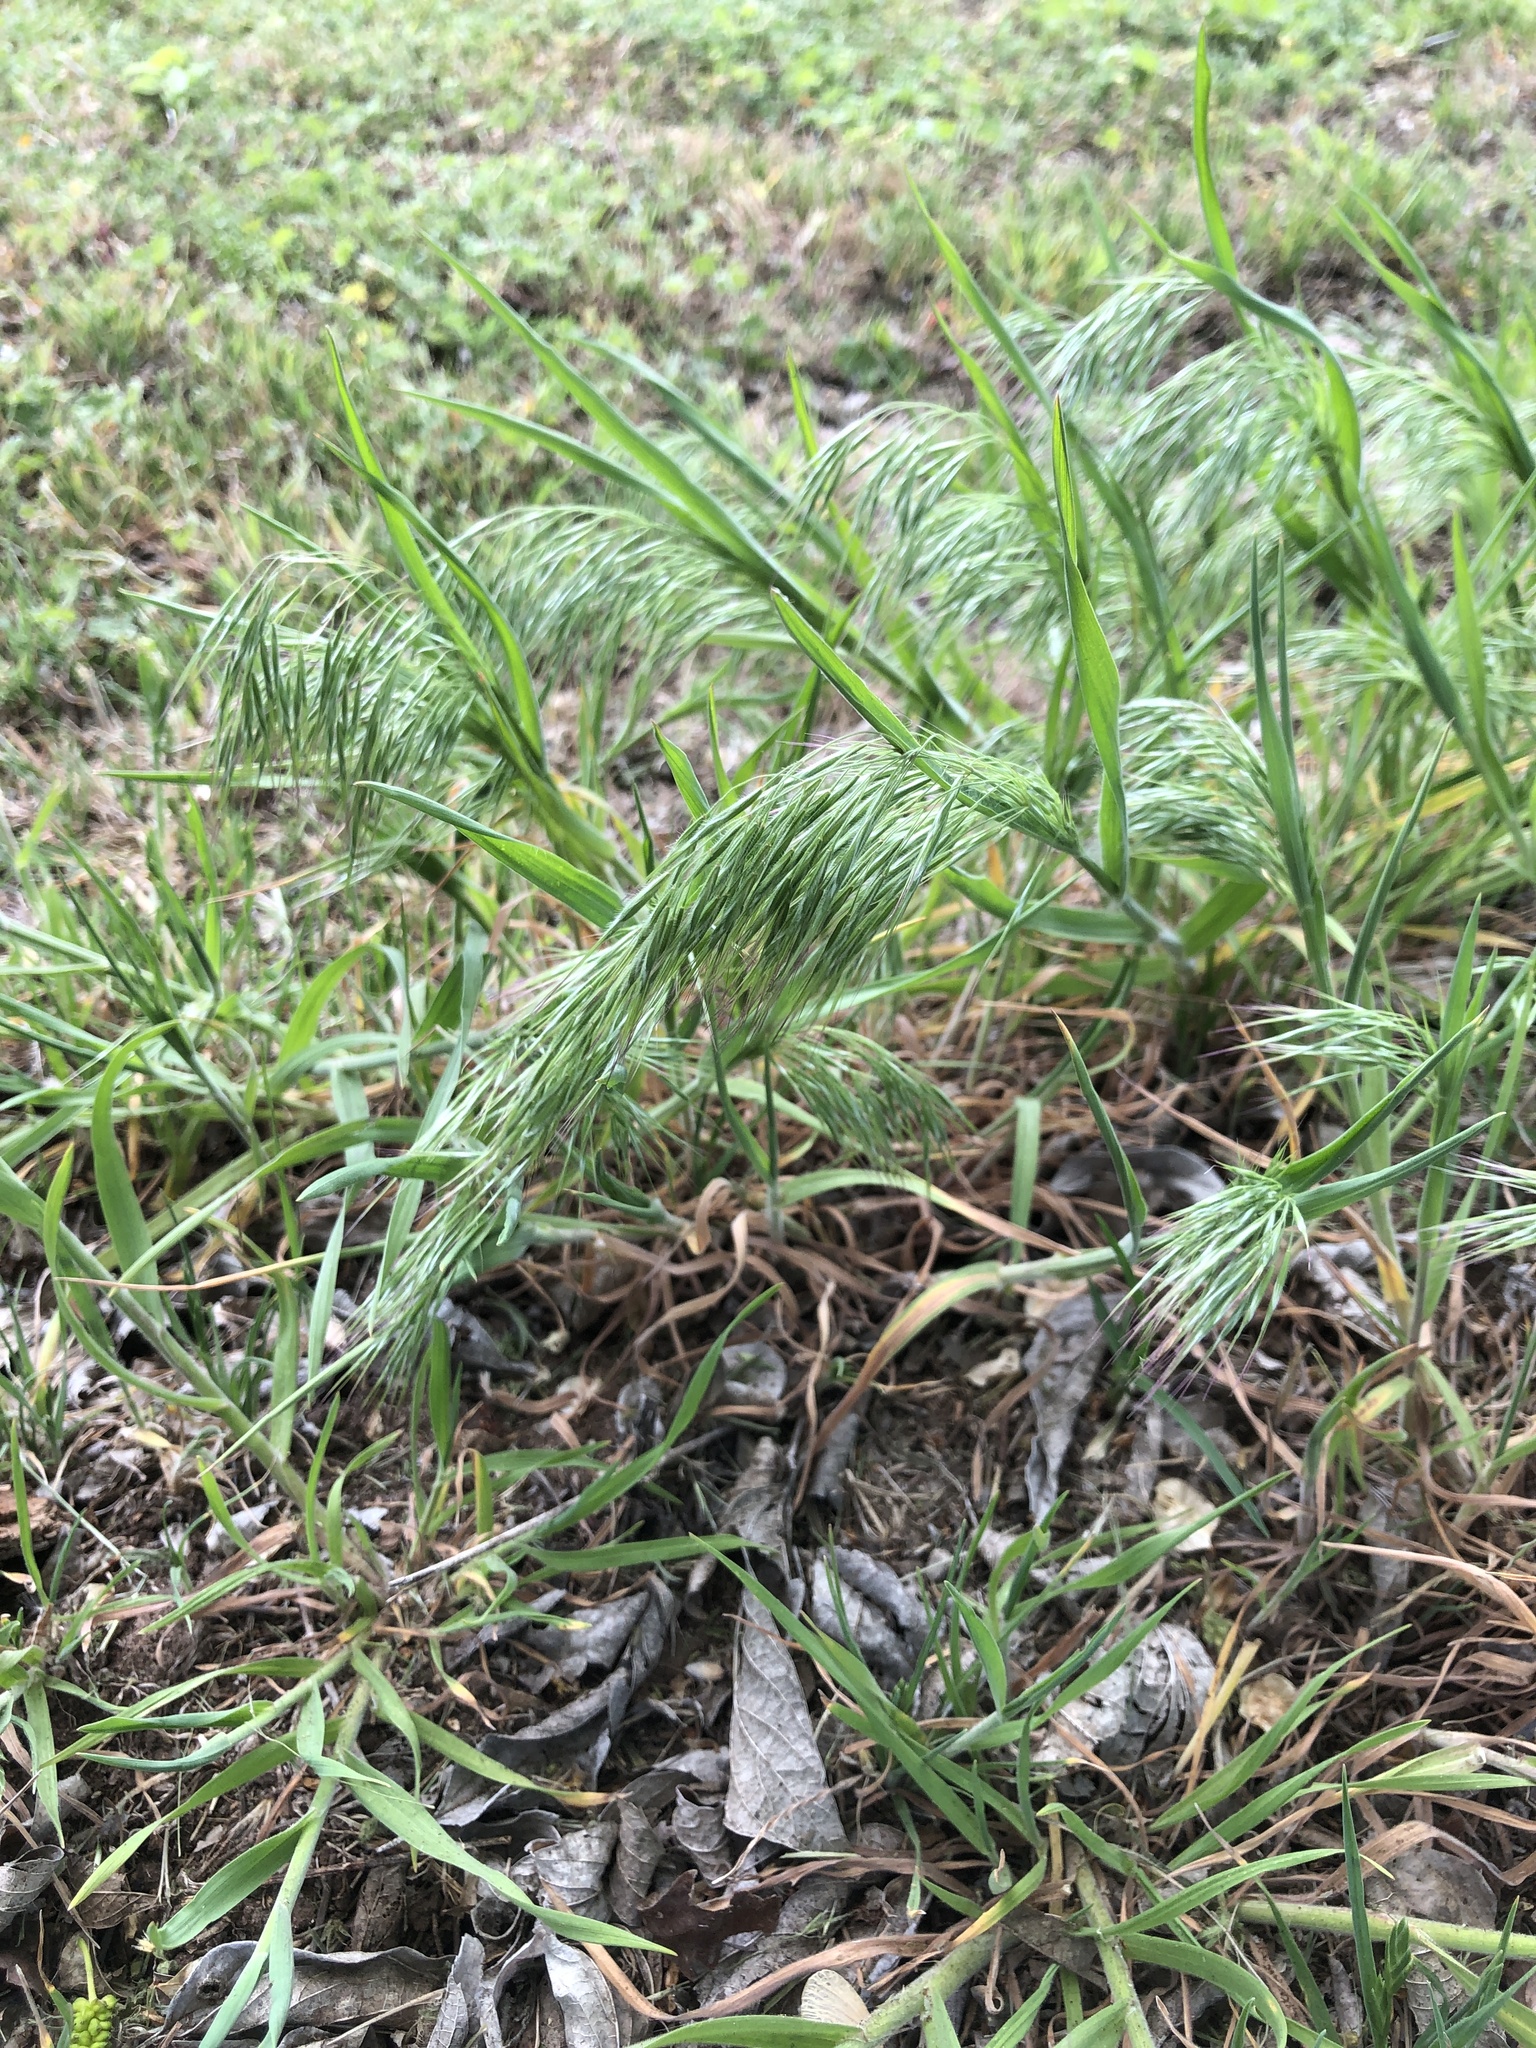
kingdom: Plantae
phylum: Tracheophyta
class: Liliopsida
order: Poales
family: Poaceae
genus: Bromus
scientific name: Bromus tectorum
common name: Cheatgrass
